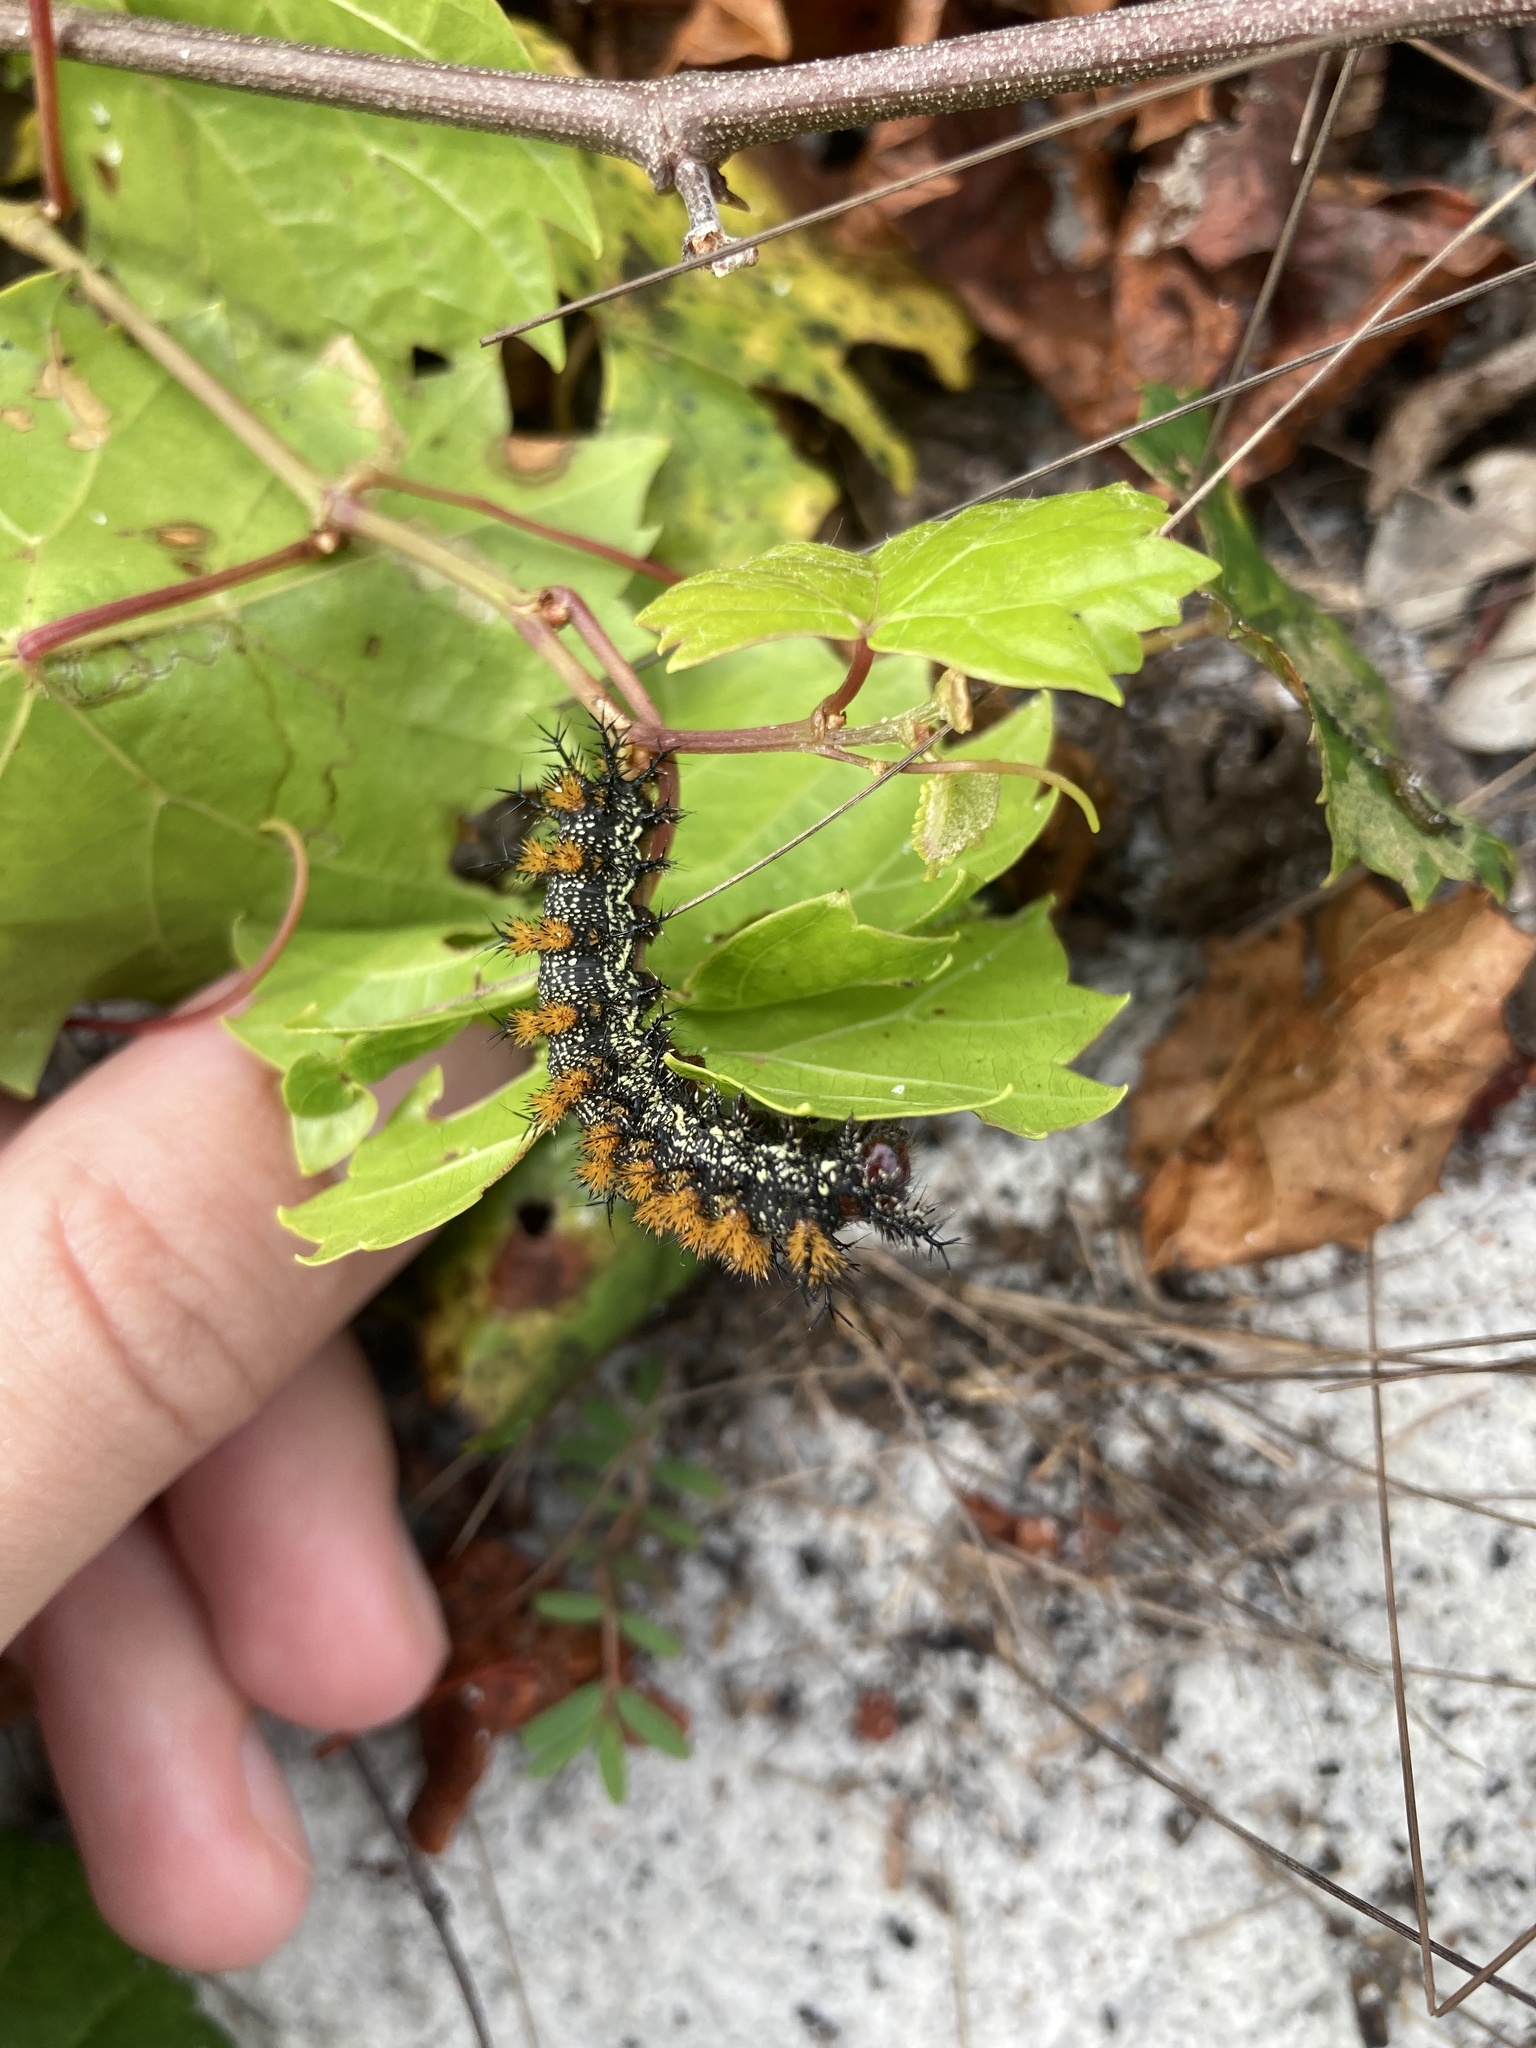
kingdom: Animalia
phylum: Arthropoda
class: Insecta
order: Lepidoptera
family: Saturniidae
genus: Hemileuca
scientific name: Hemileuca maia
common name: Eastern buckmoth
